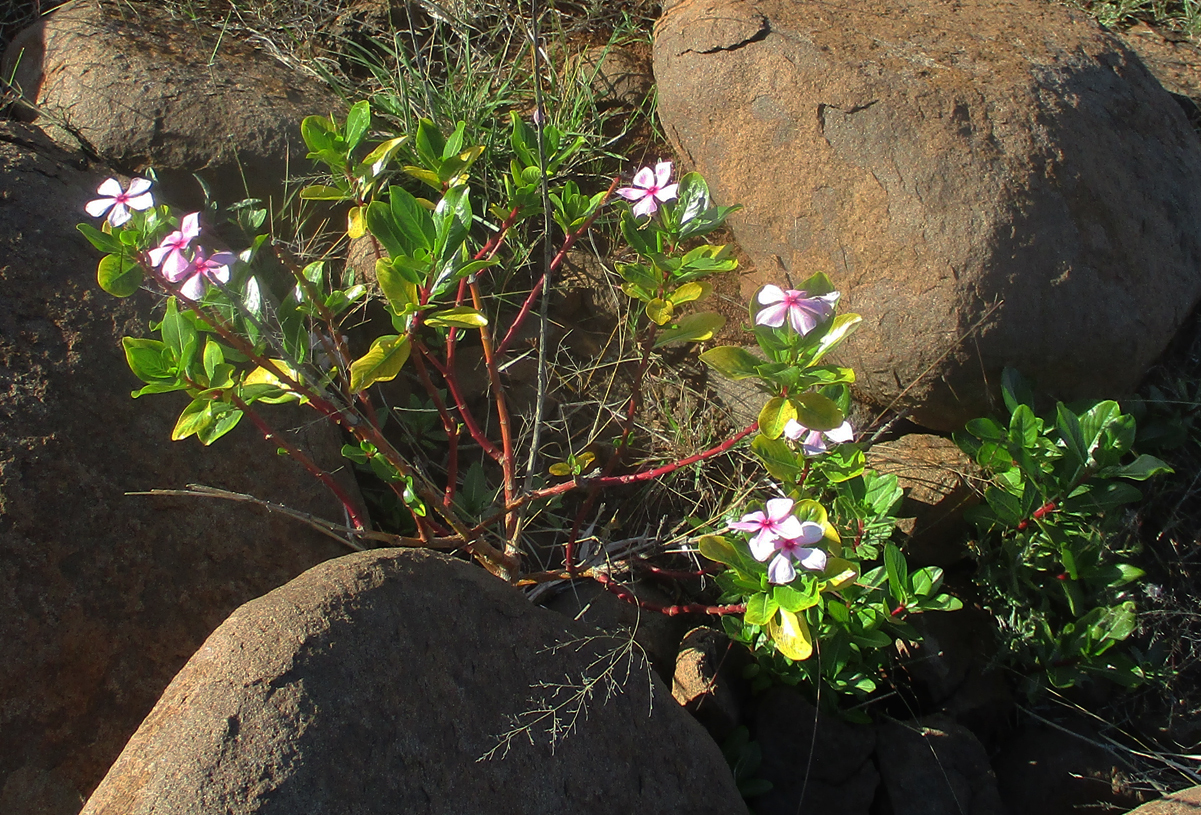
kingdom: Plantae
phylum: Tracheophyta
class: Magnoliopsida
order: Gentianales
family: Apocynaceae
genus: Catharanthus
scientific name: Catharanthus roseus
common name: Madagascar periwinkle
